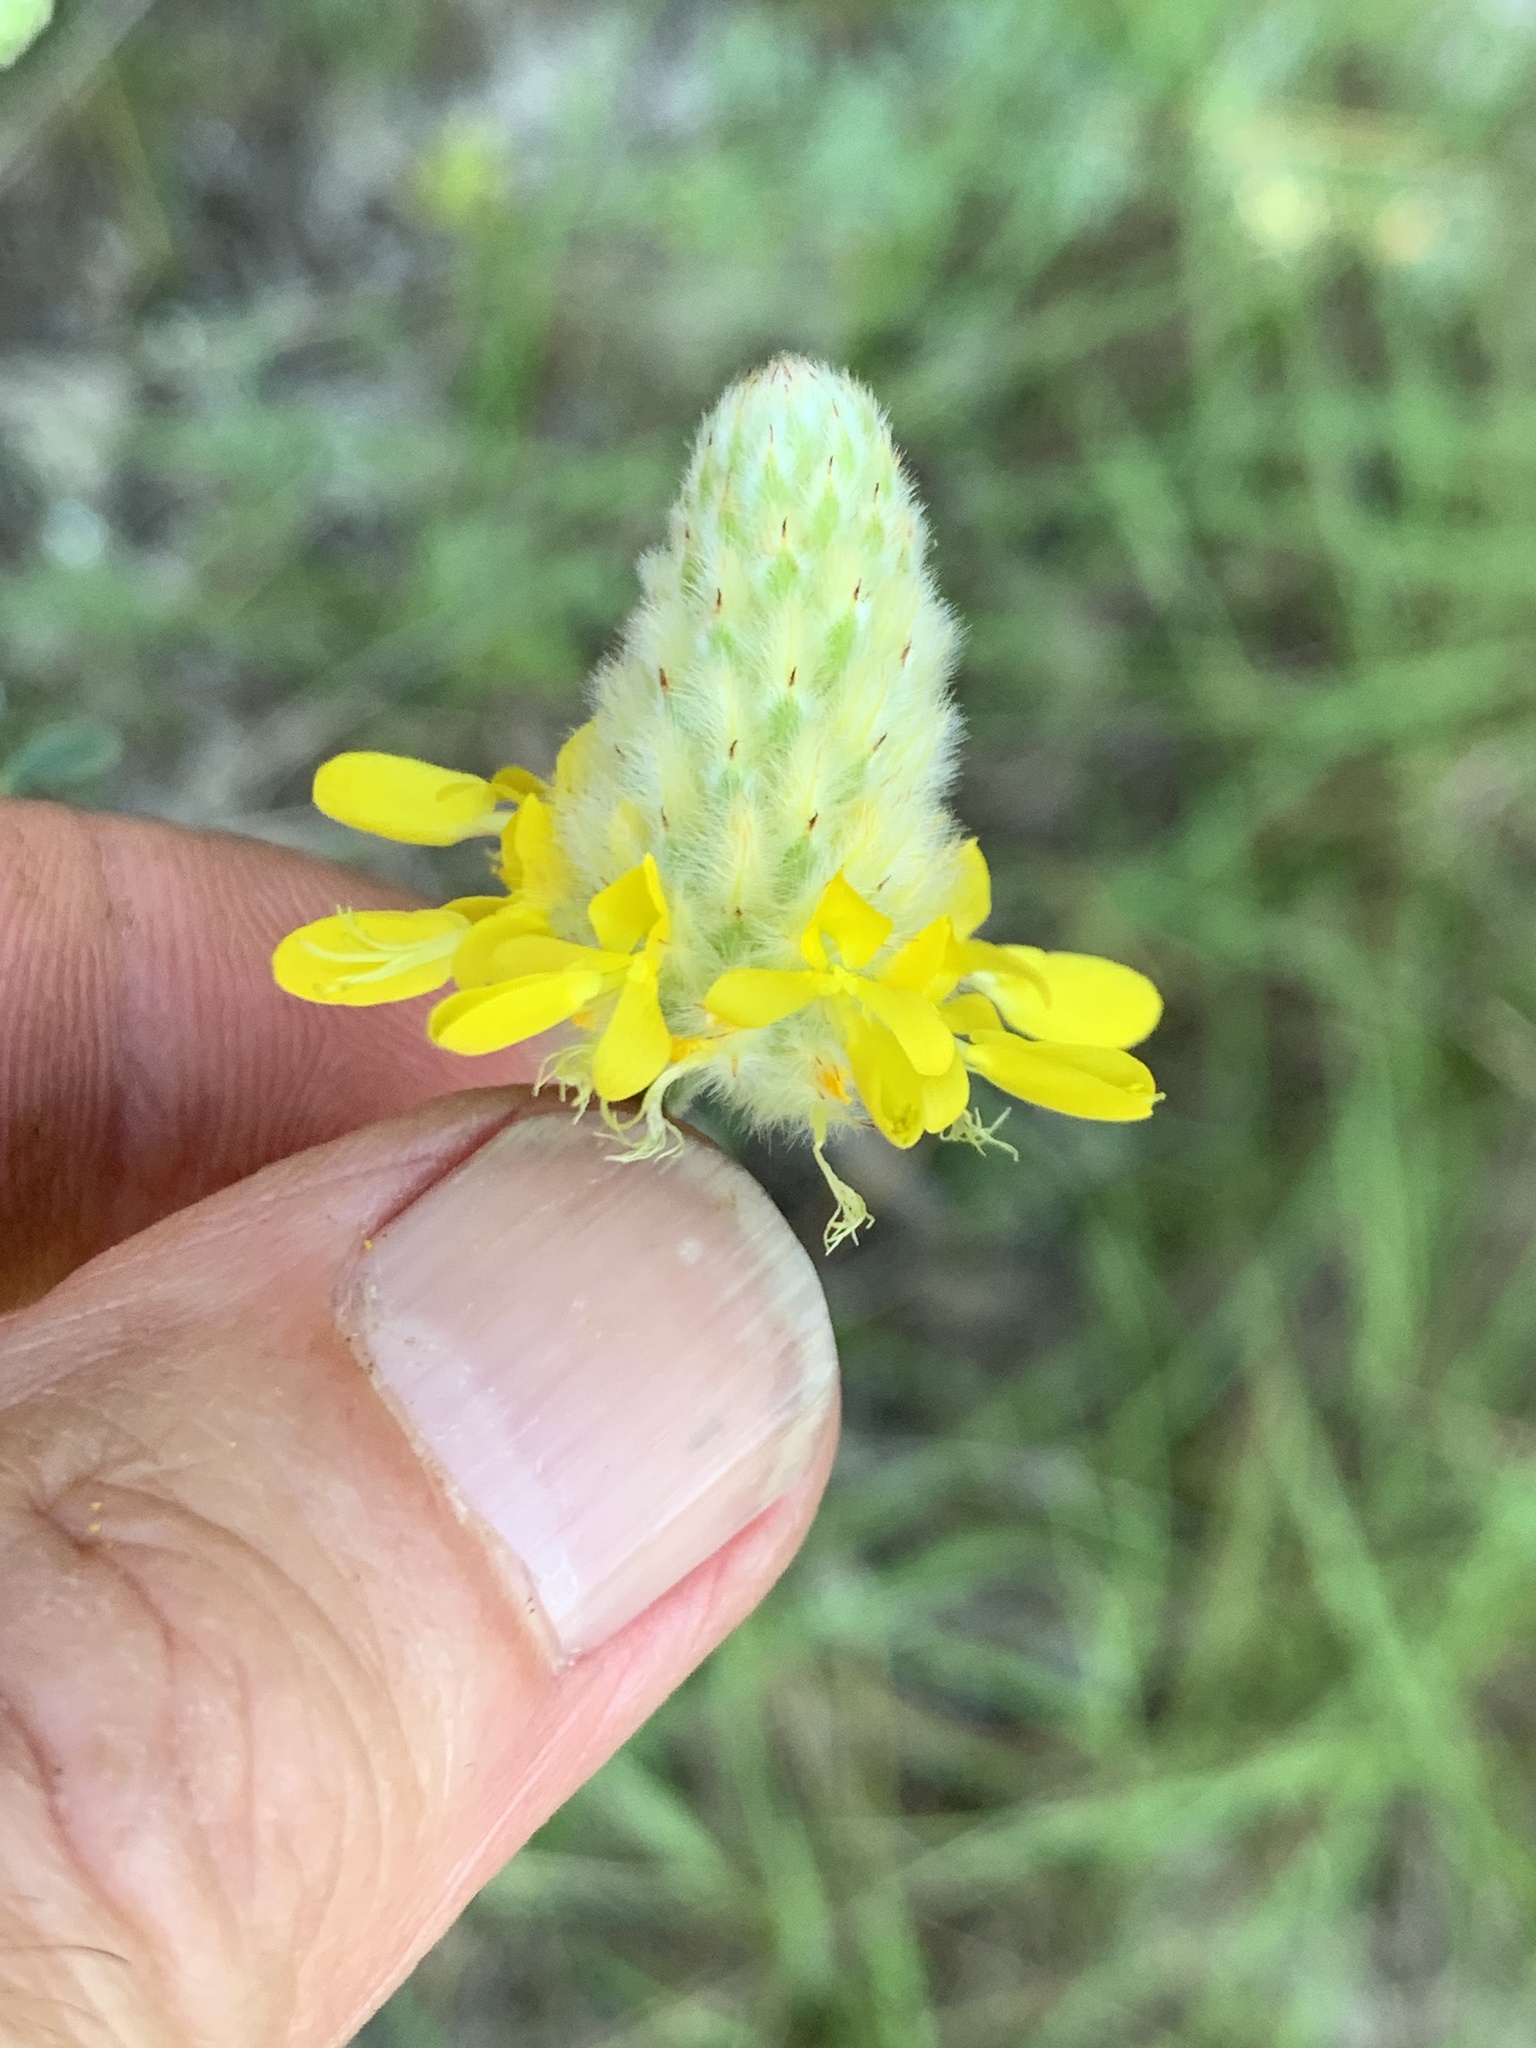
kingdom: Plantae
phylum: Tracheophyta
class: Magnoliopsida
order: Fabales
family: Fabaceae
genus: Dalea
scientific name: Dalea aurea
